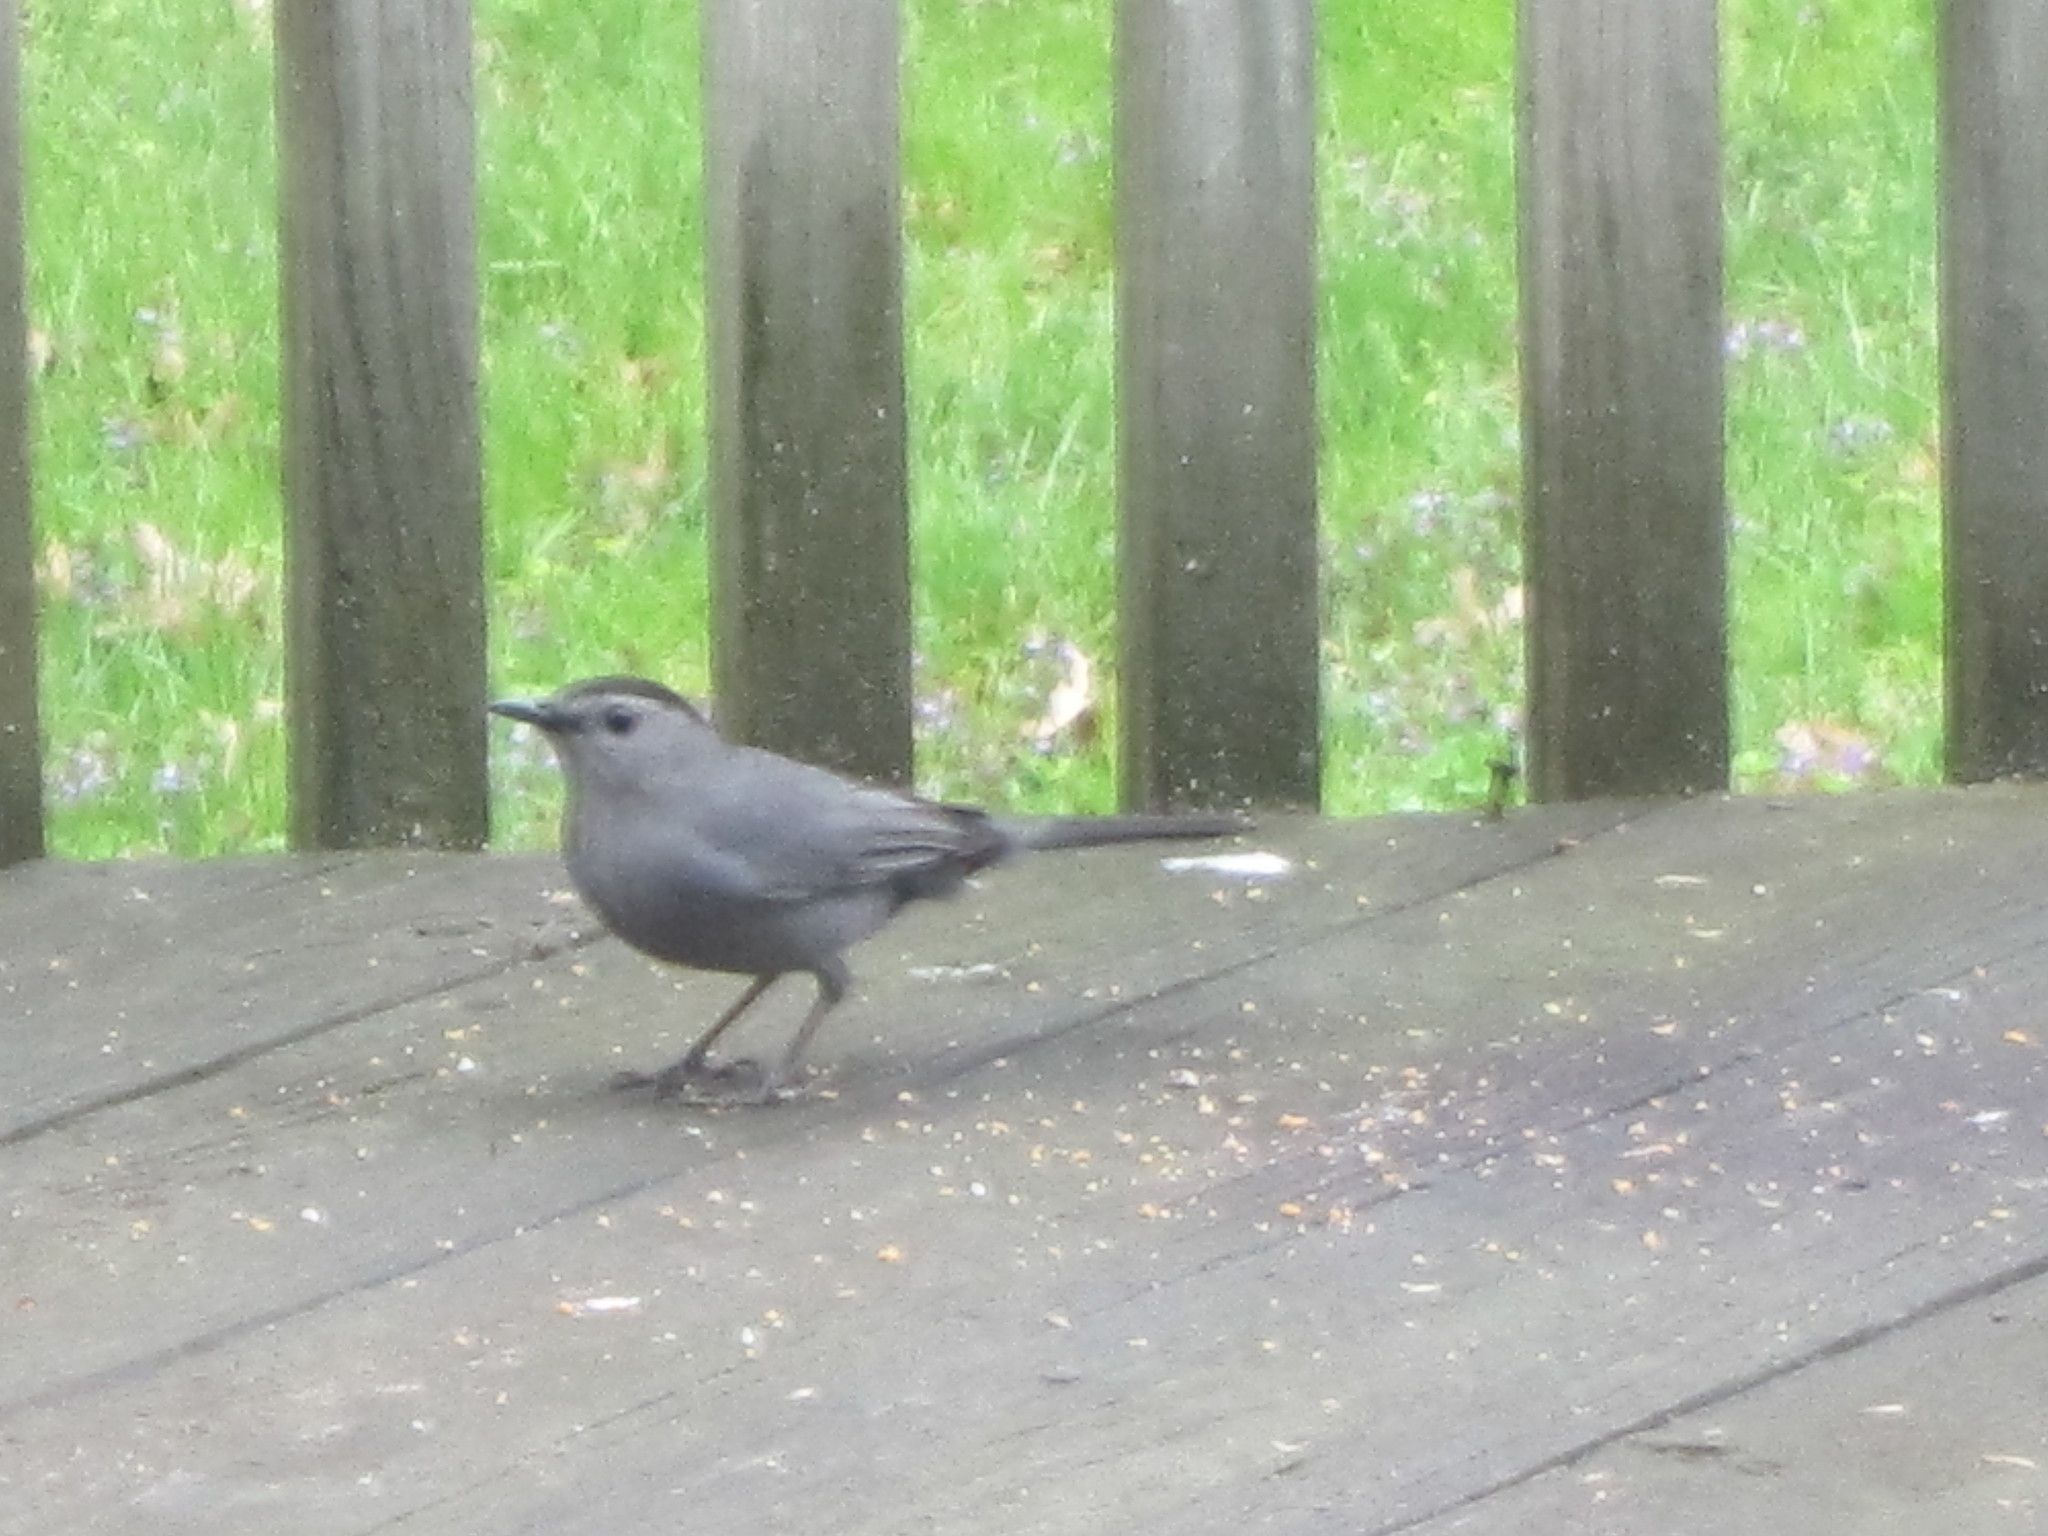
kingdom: Animalia
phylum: Chordata
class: Aves
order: Passeriformes
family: Mimidae
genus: Dumetella
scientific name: Dumetella carolinensis
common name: Gray catbird
